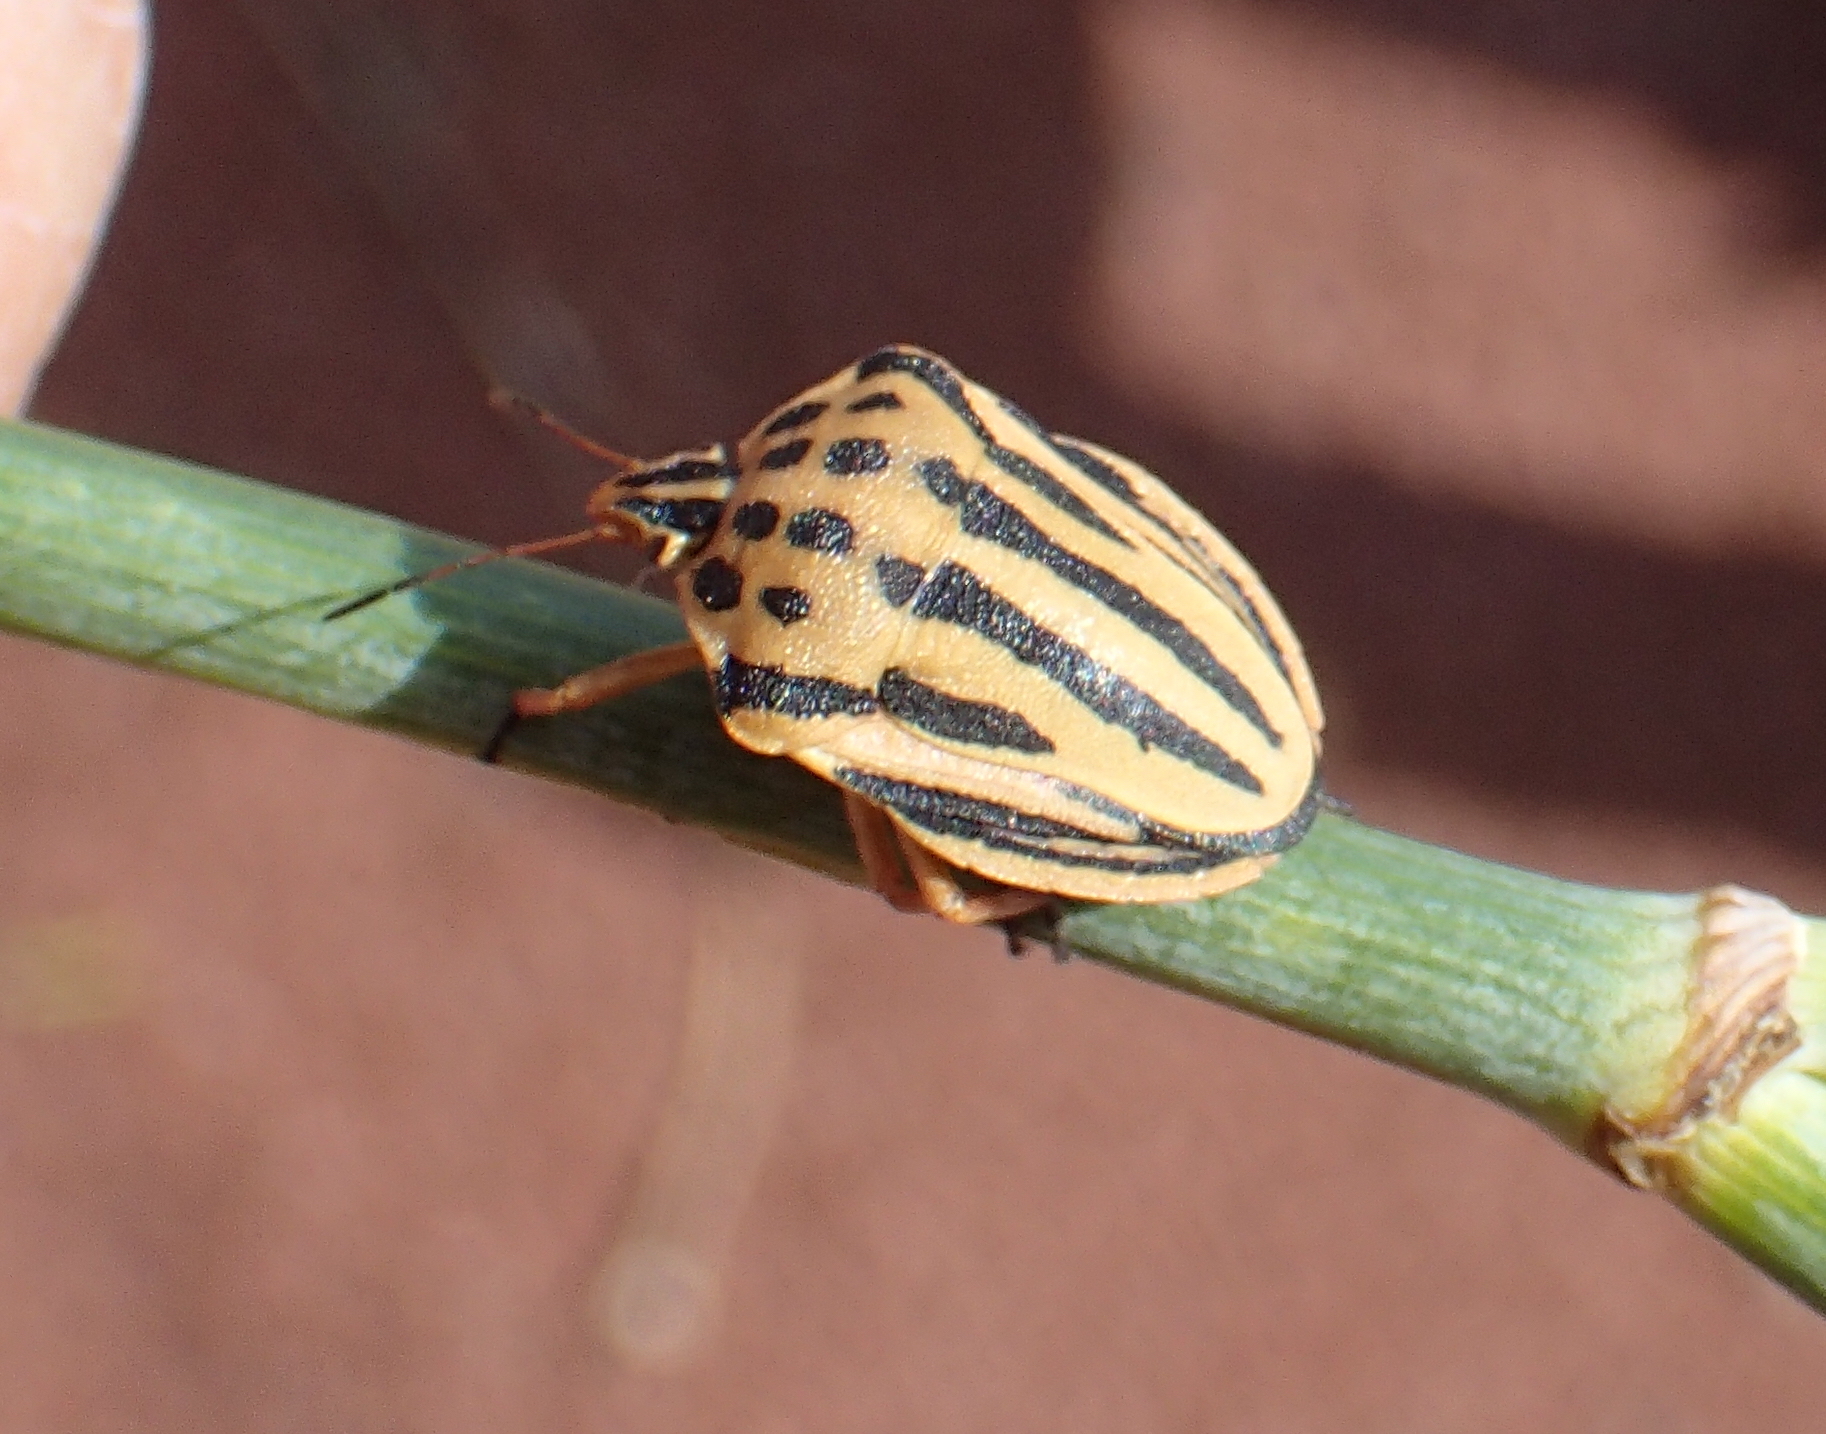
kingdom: Animalia
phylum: Arthropoda
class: Insecta
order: Hemiptera
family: Pentatomidae
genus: Graphosoma
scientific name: Graphosoma semipunctatum
